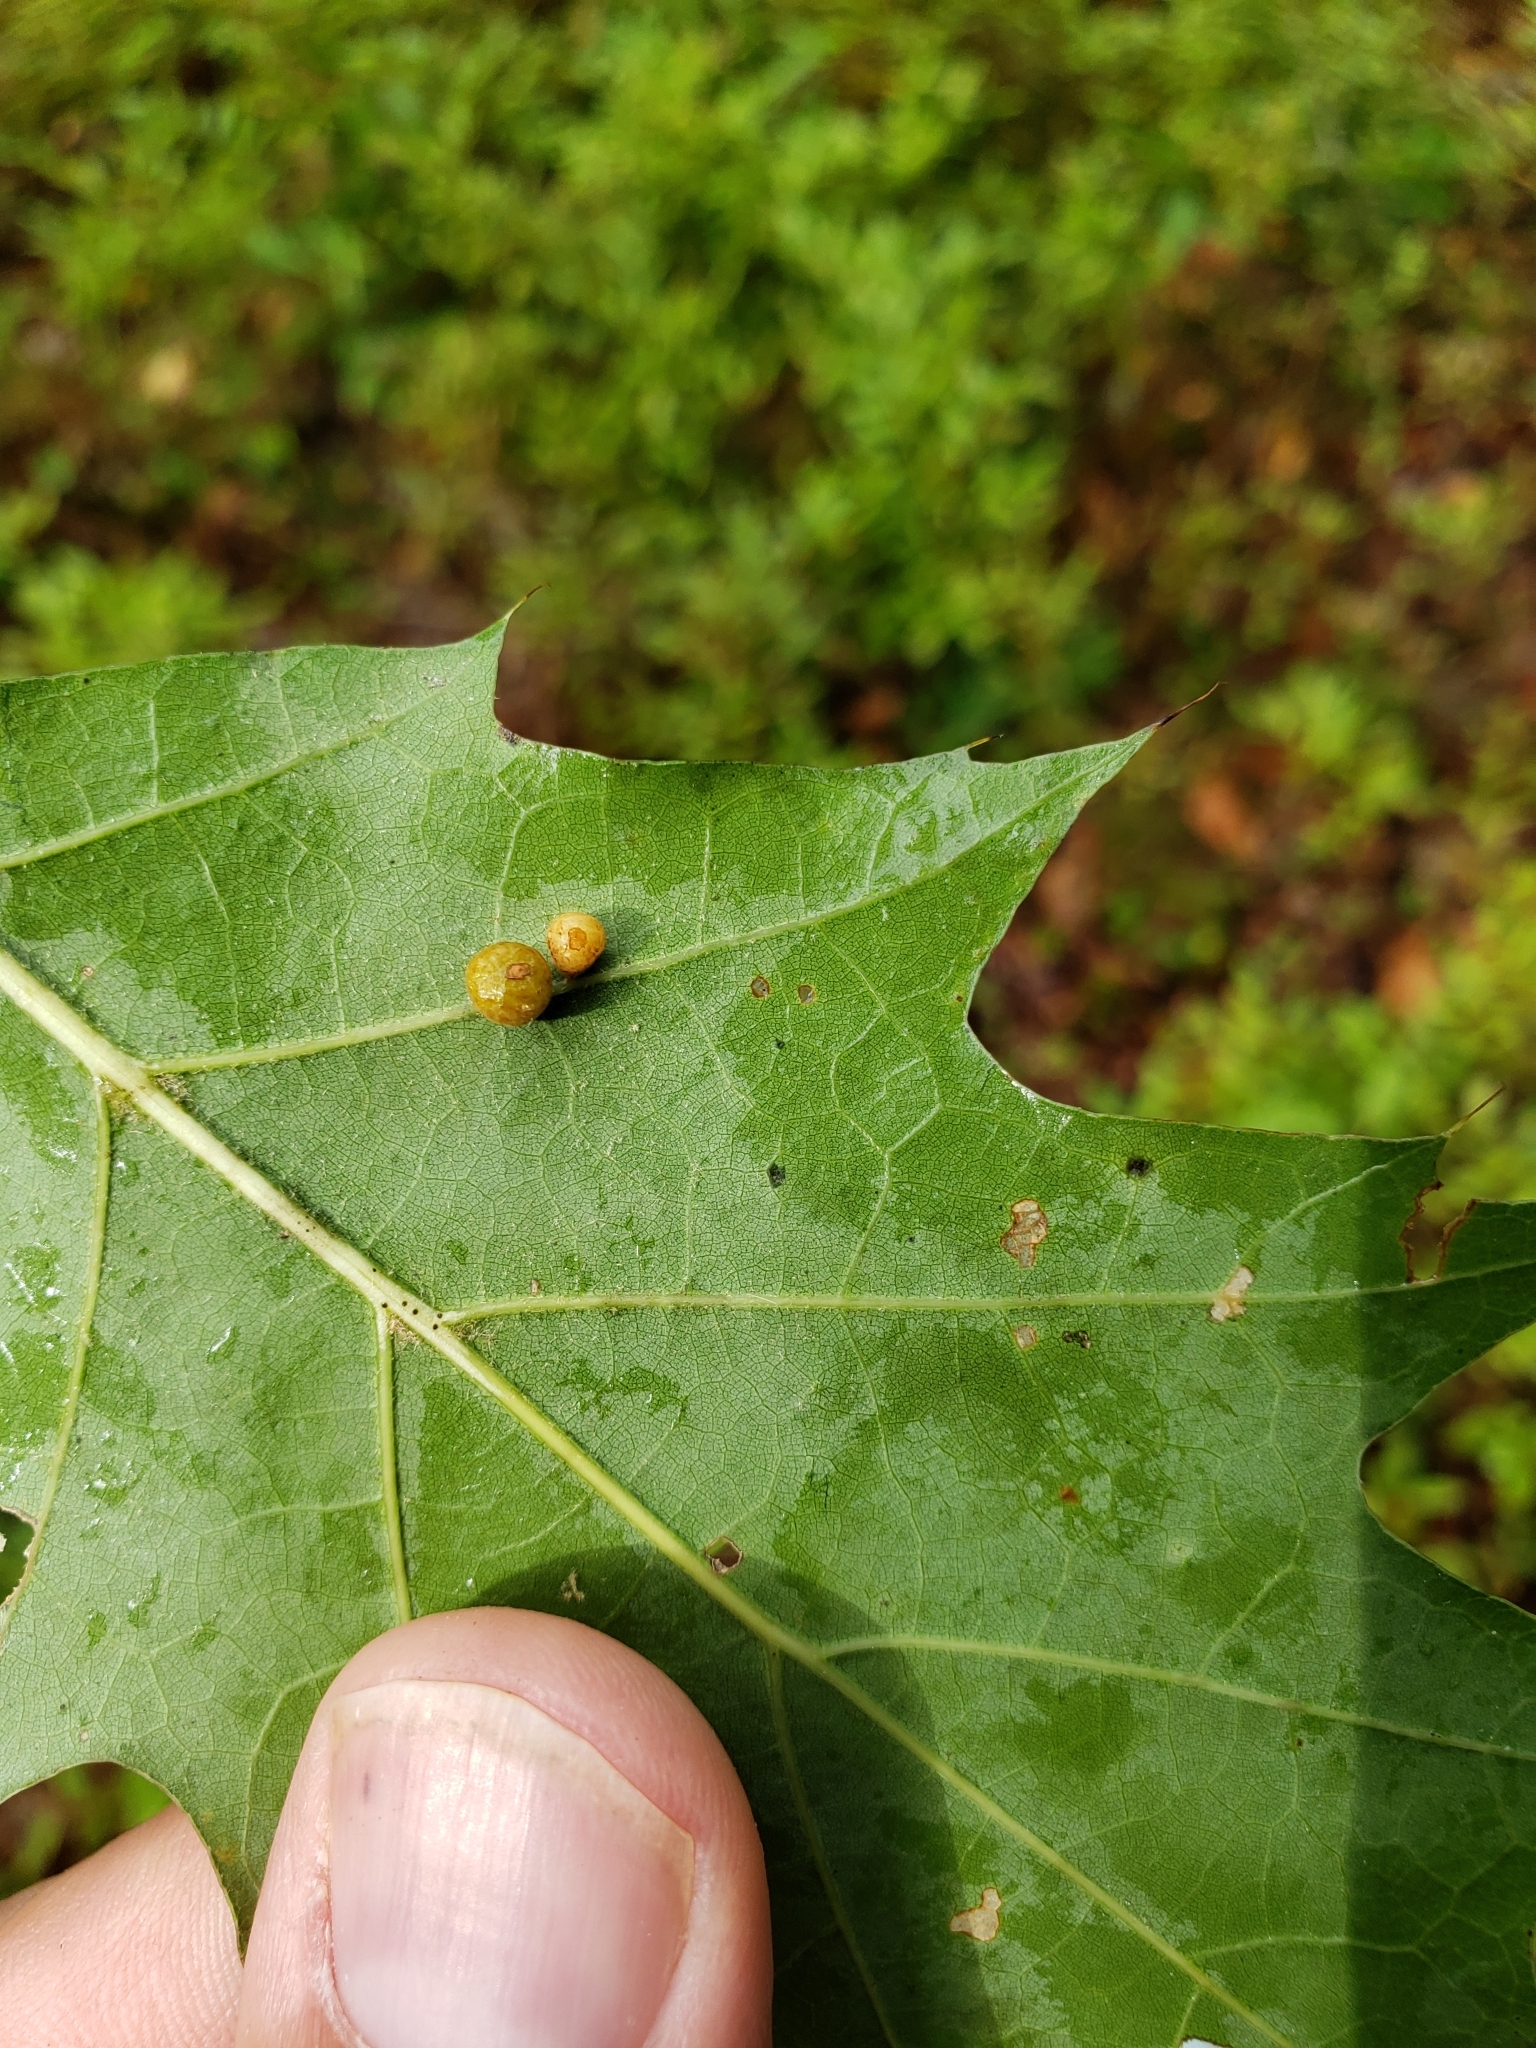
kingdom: Animalia
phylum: Arthropoda
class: Insecta
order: Diptera
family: Cecidomyiidae
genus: Polystepha
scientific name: Polystepha globosa
